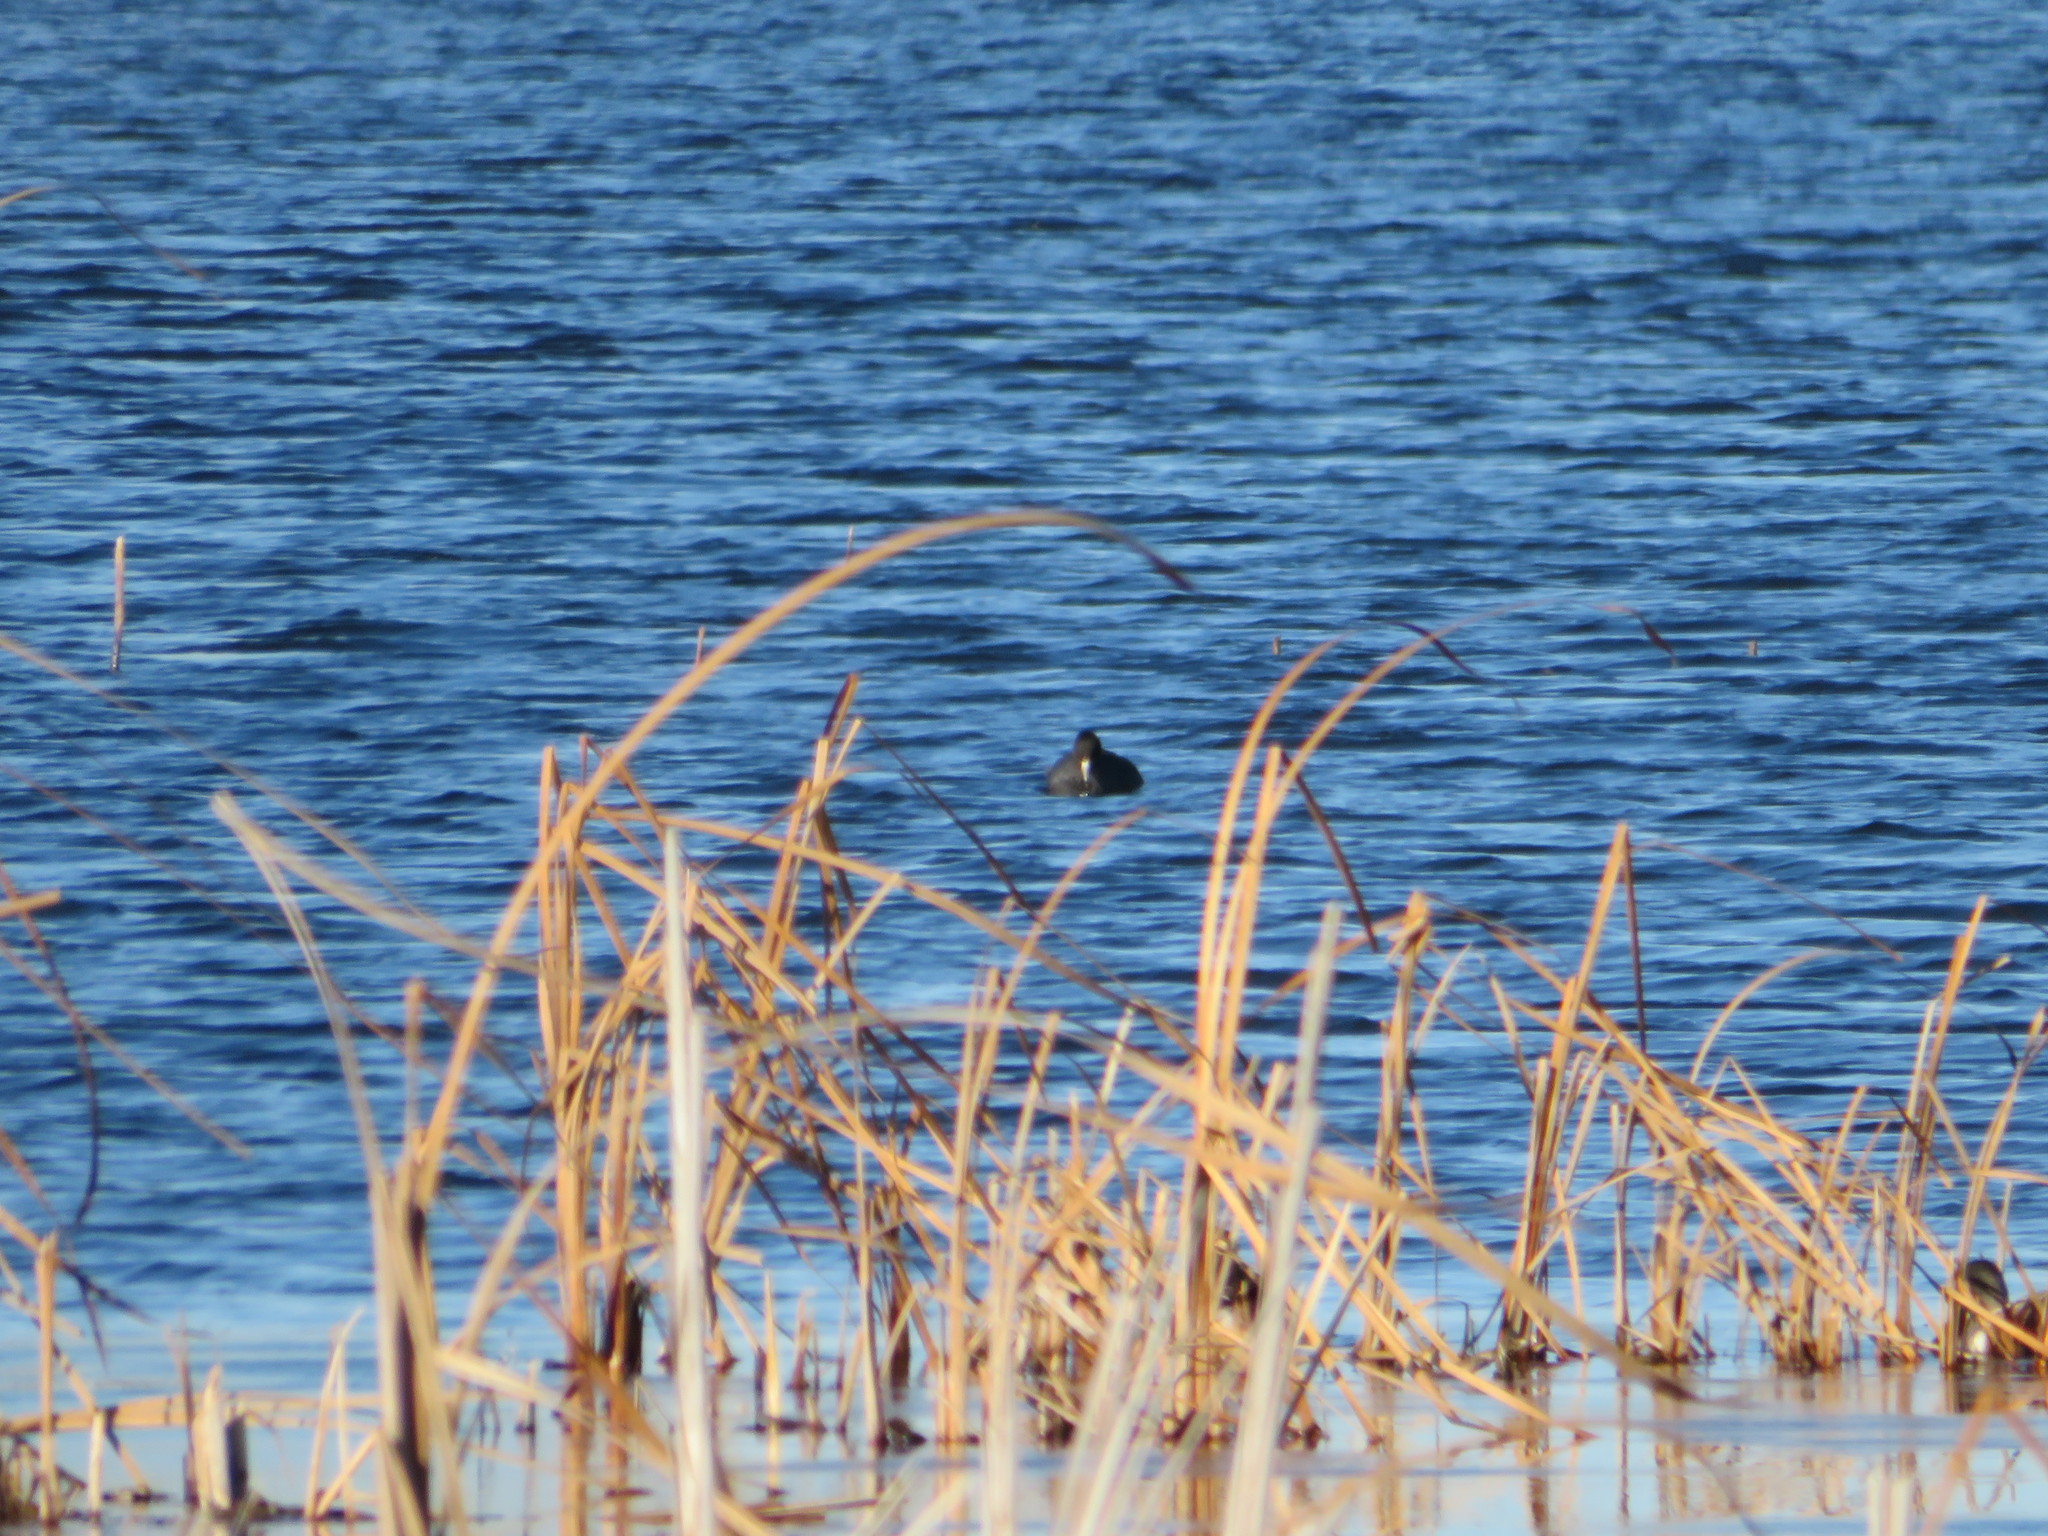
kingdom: Animalia
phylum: Chordata
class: Aves
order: Gruiformes
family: Rallidae
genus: Fulica
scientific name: Fulica americana
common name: American coot
